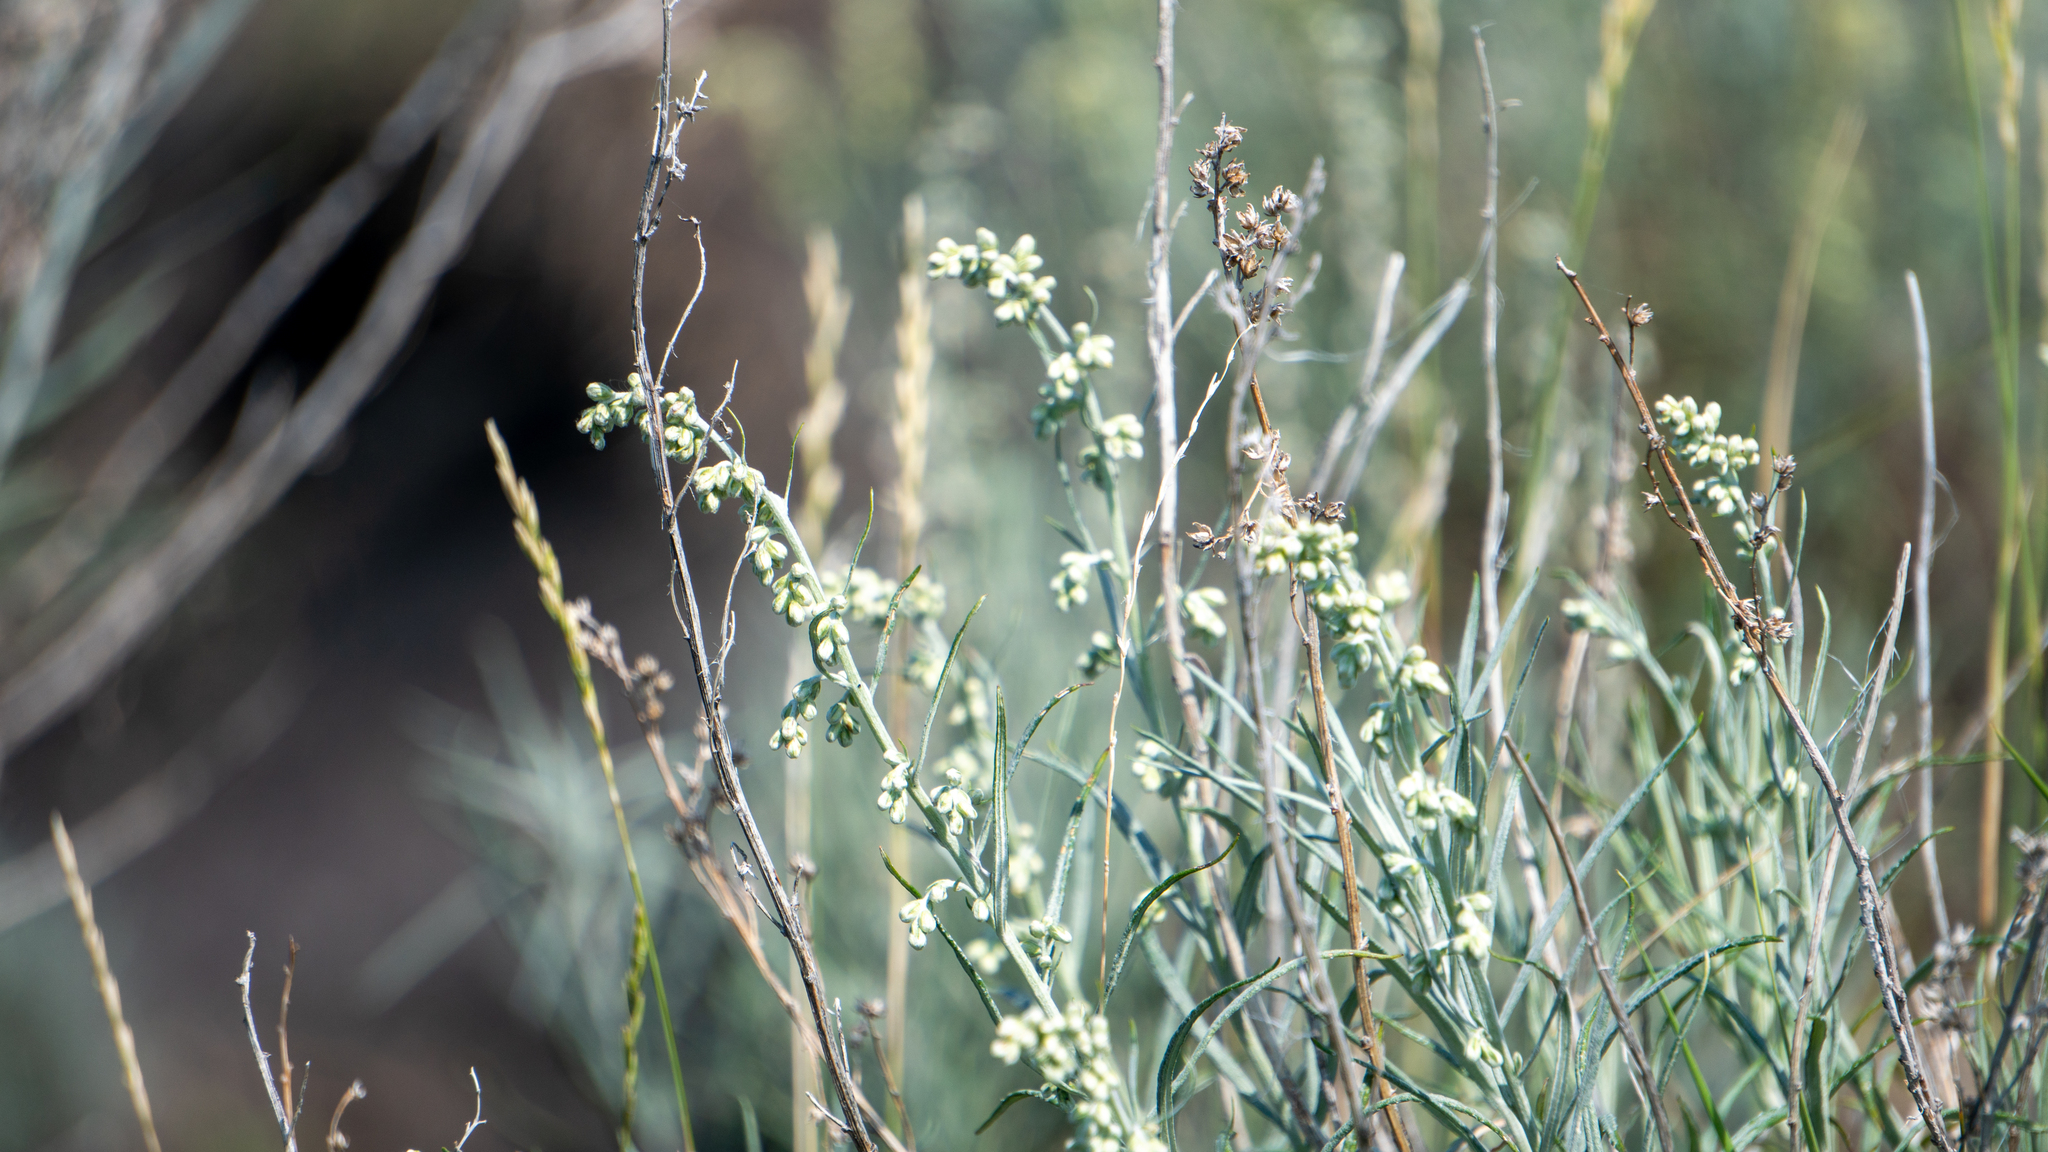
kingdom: Plantae
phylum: Tracheophyta
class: Magnoliopsida
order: Asterales
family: Asteraceae
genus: Artemisia
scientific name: Artemisia longifolia
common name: Long-leaved mugwort
